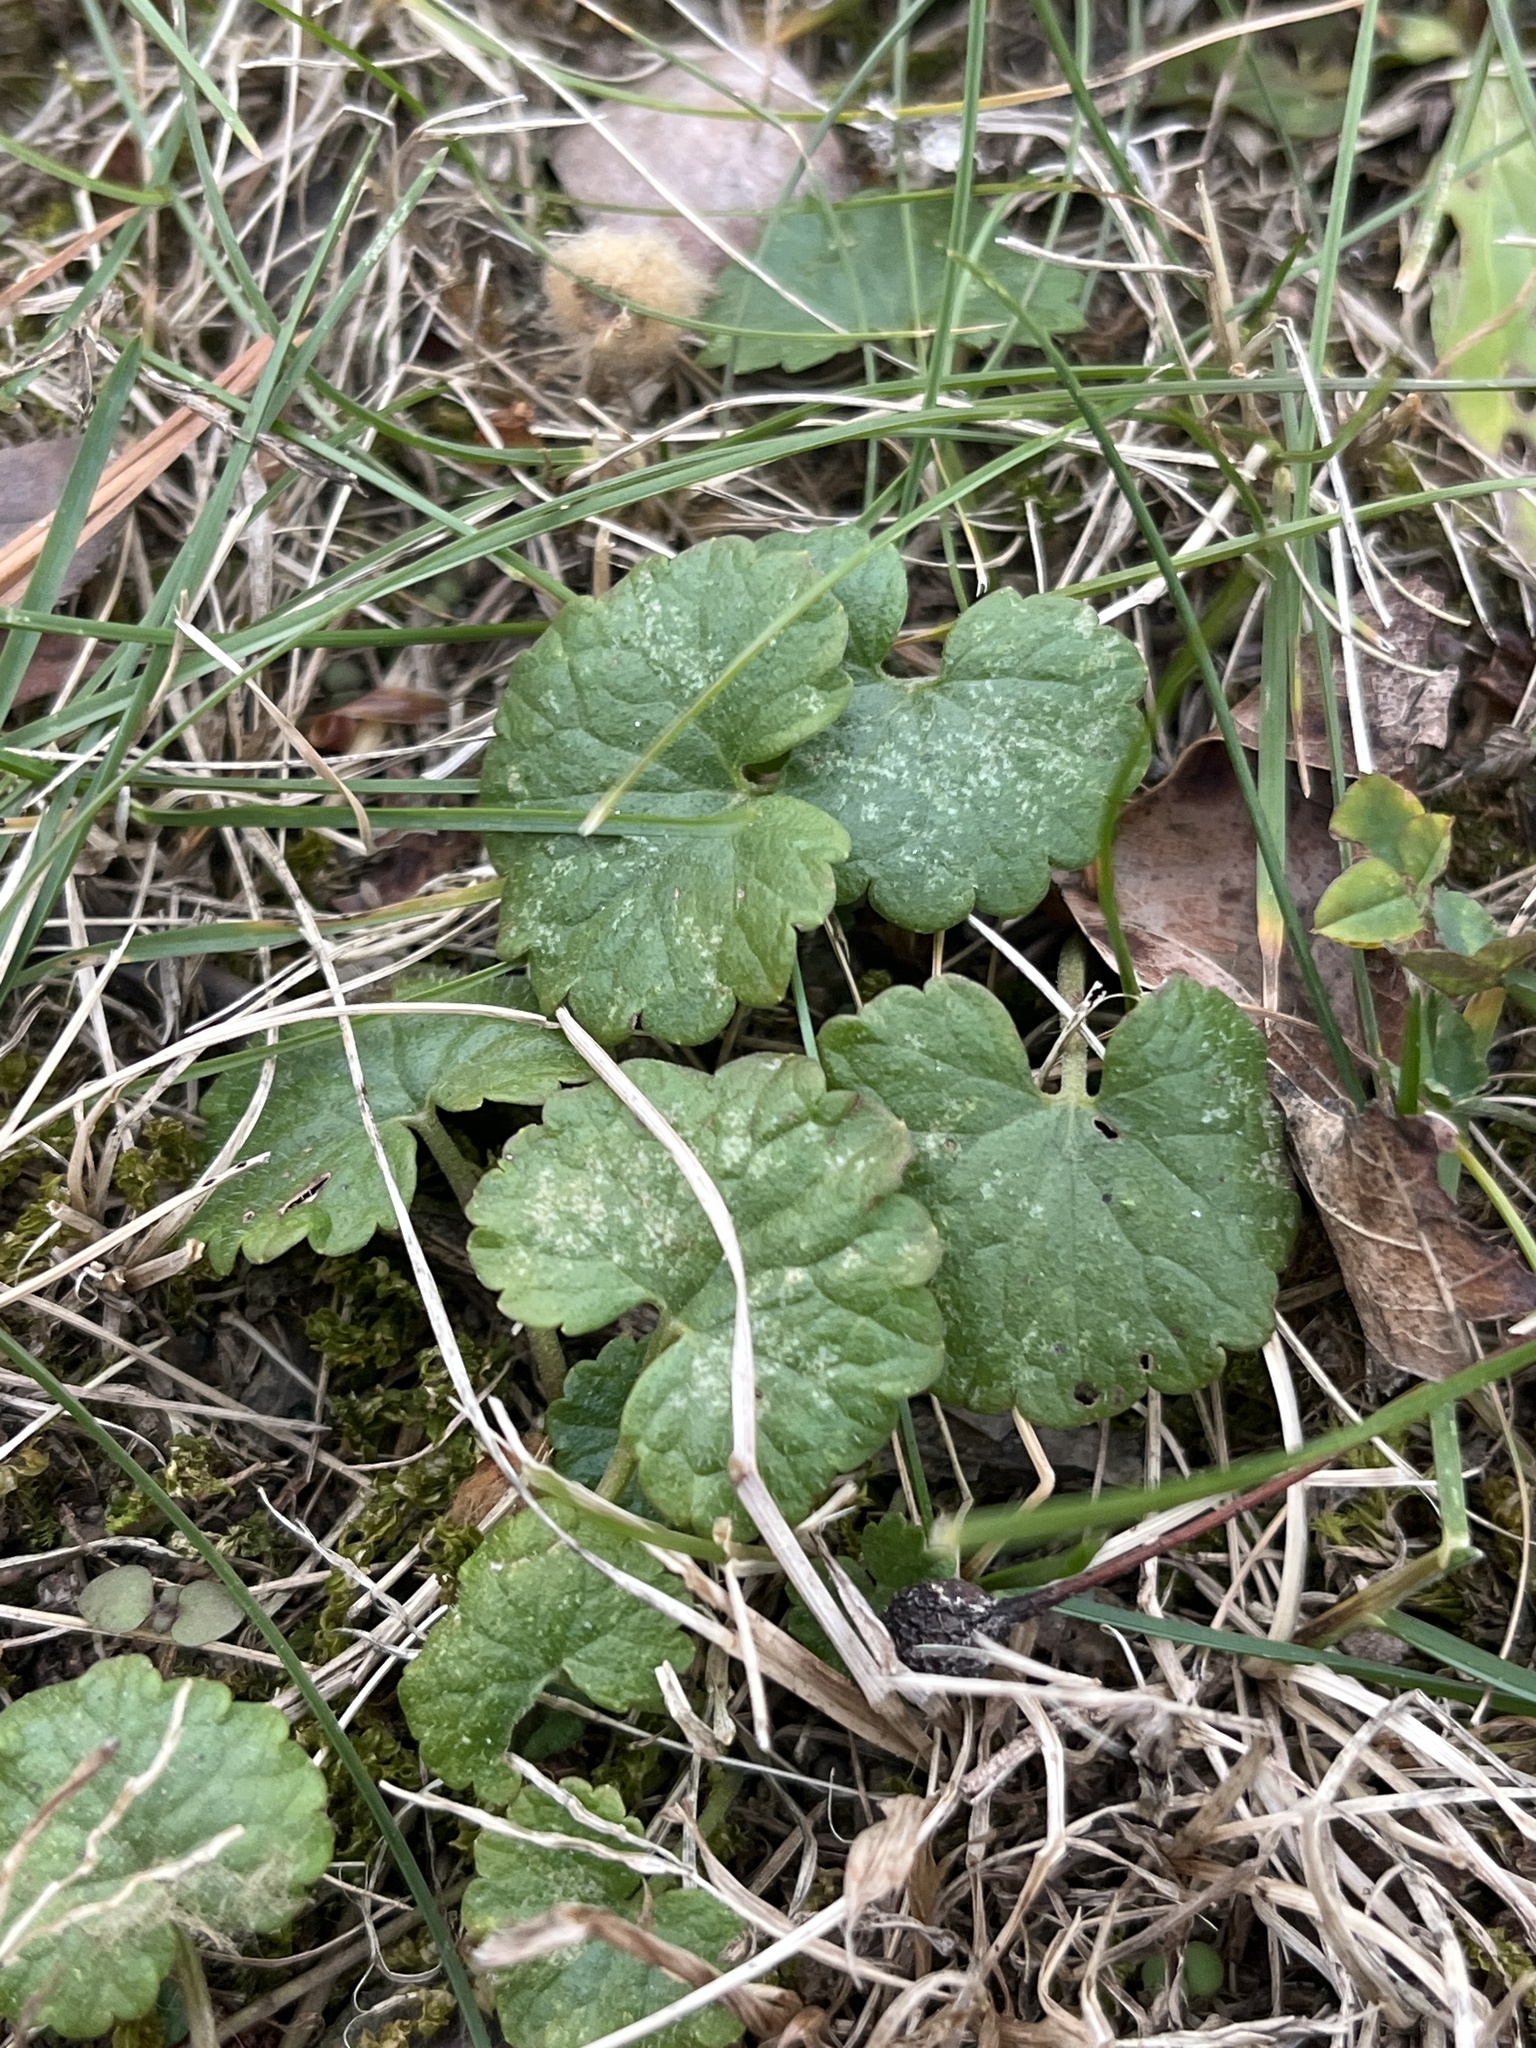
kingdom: Plantae
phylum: Tracheophyta
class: Magnoliopsida
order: Lamiales
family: Lamiaceae
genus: Glechoma
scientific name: Glechoma hederacea
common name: Ground ivy
